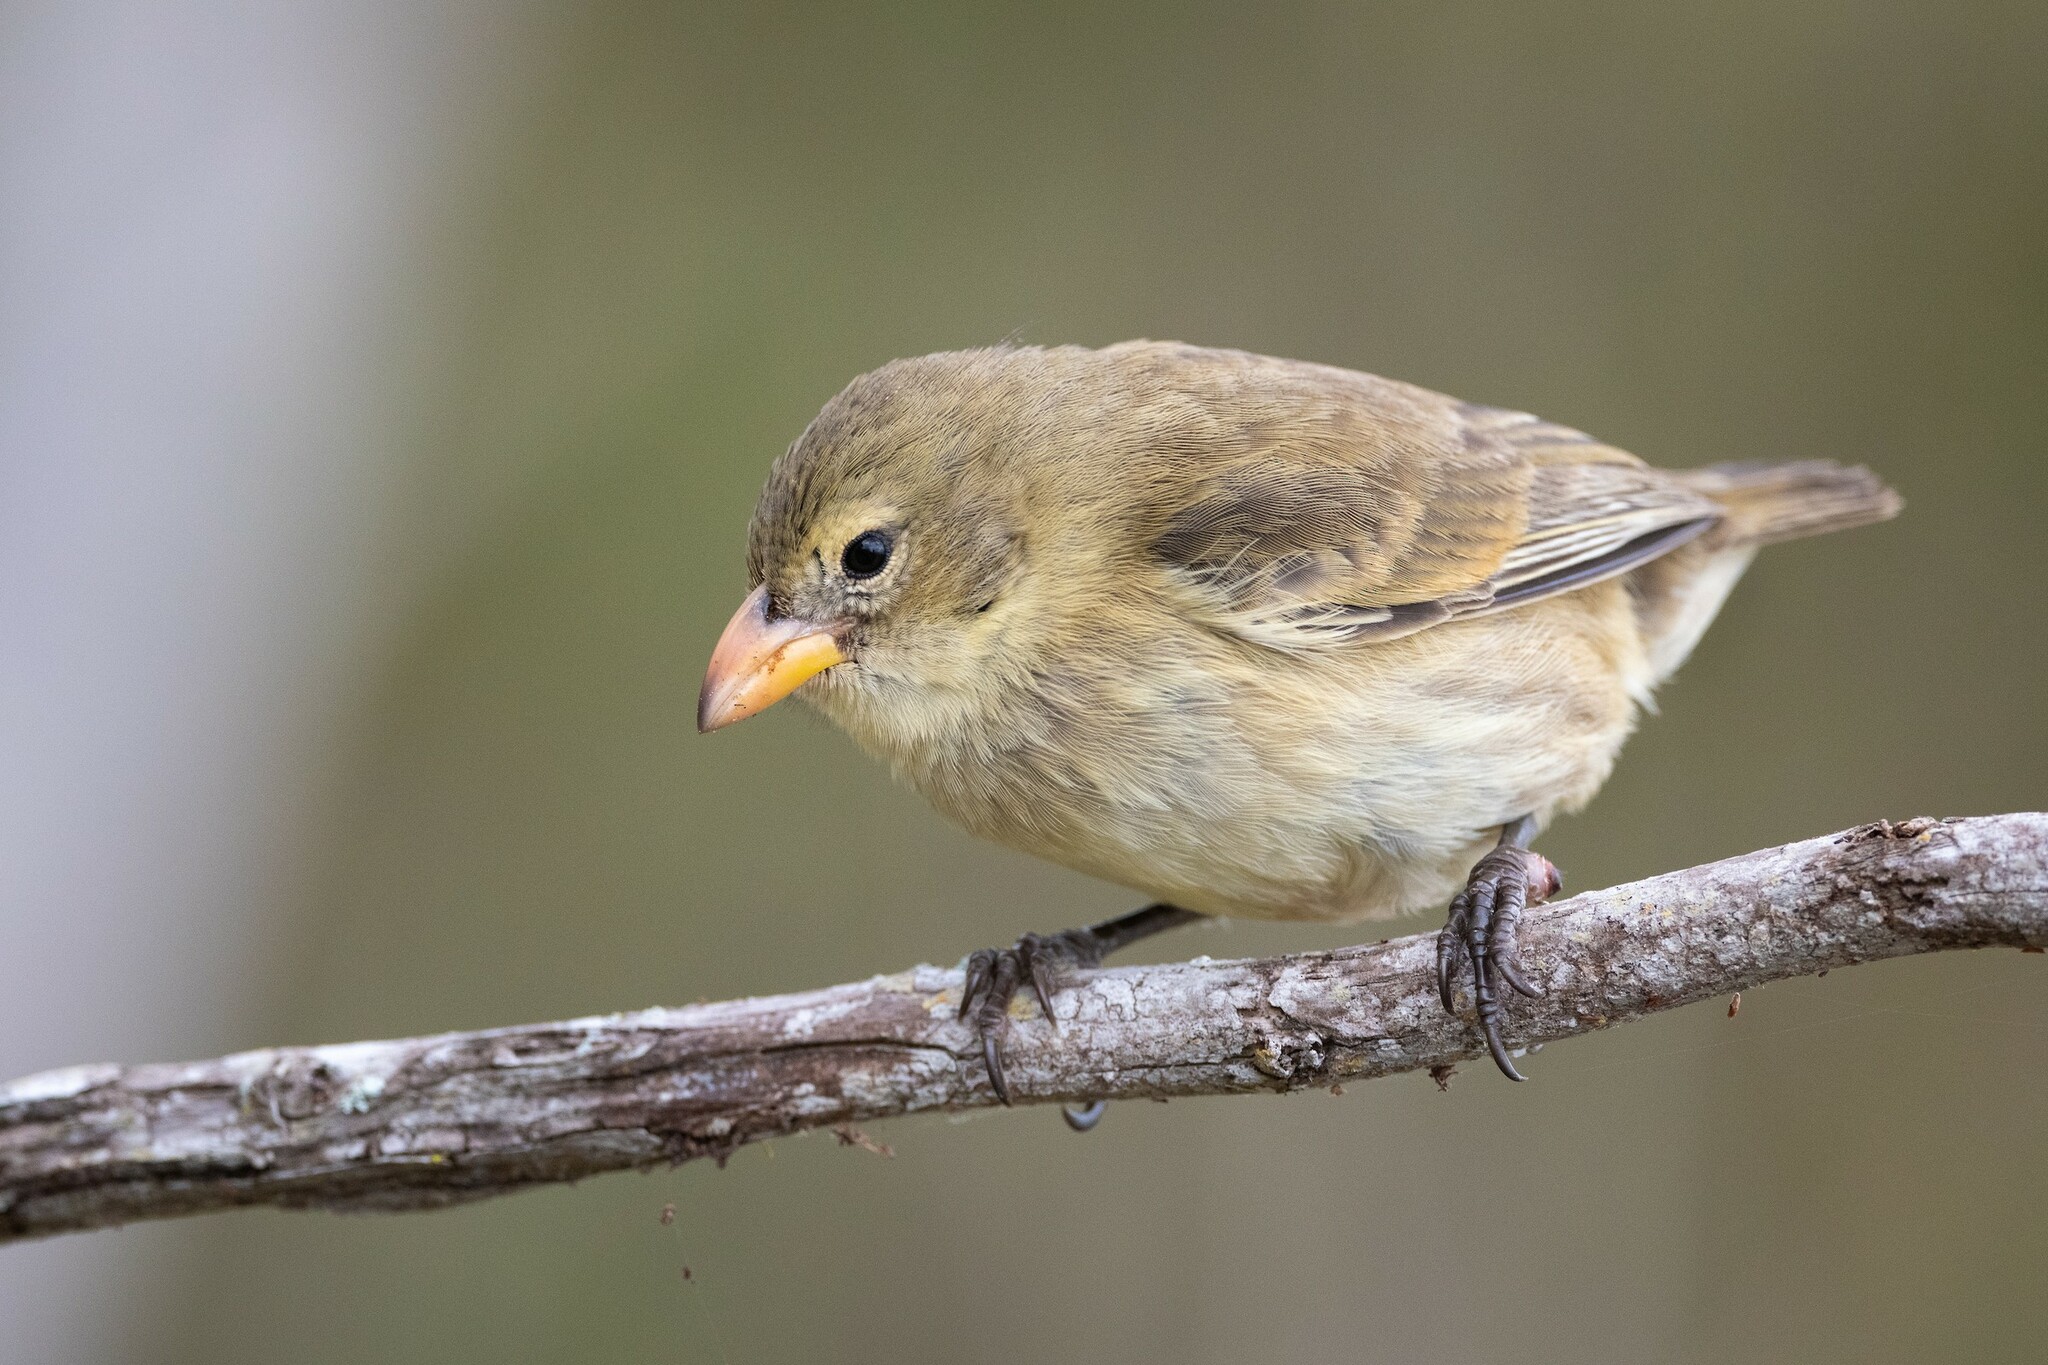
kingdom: Animalia
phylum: Chordata
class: Aves
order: Passeriformes
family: Thraupidae
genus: Camarhynchus
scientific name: Camarhynchus pallidus
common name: Woodpecker finch
